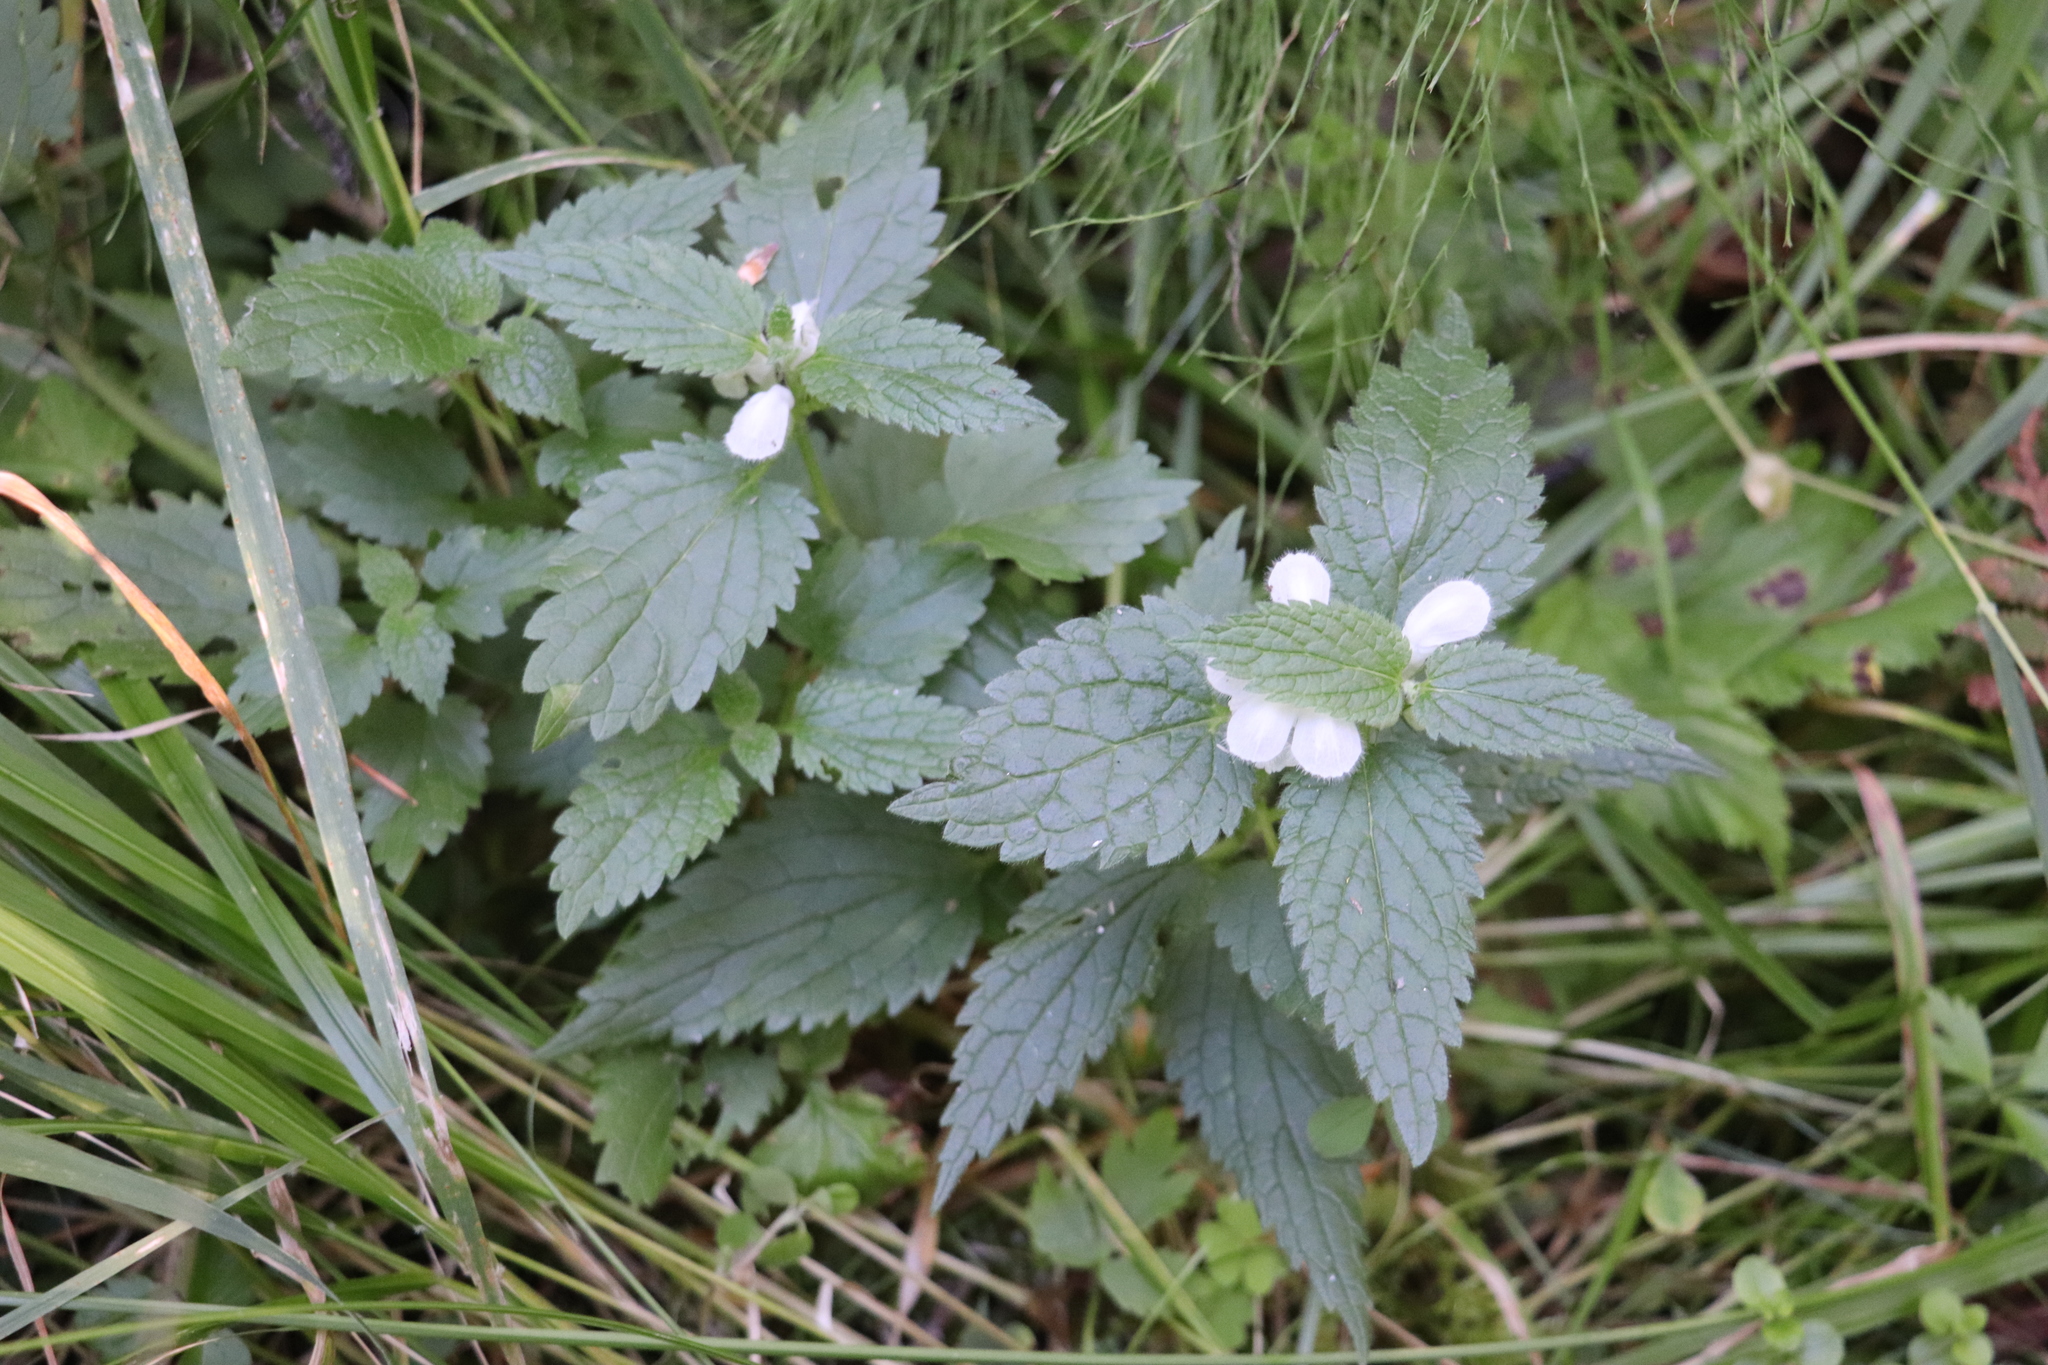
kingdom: Plantae
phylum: Tracheophyta
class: Magnoliopsida
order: Lamiales
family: Lamiaceae
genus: Lamium
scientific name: Lamium album
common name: White dead-nettle
